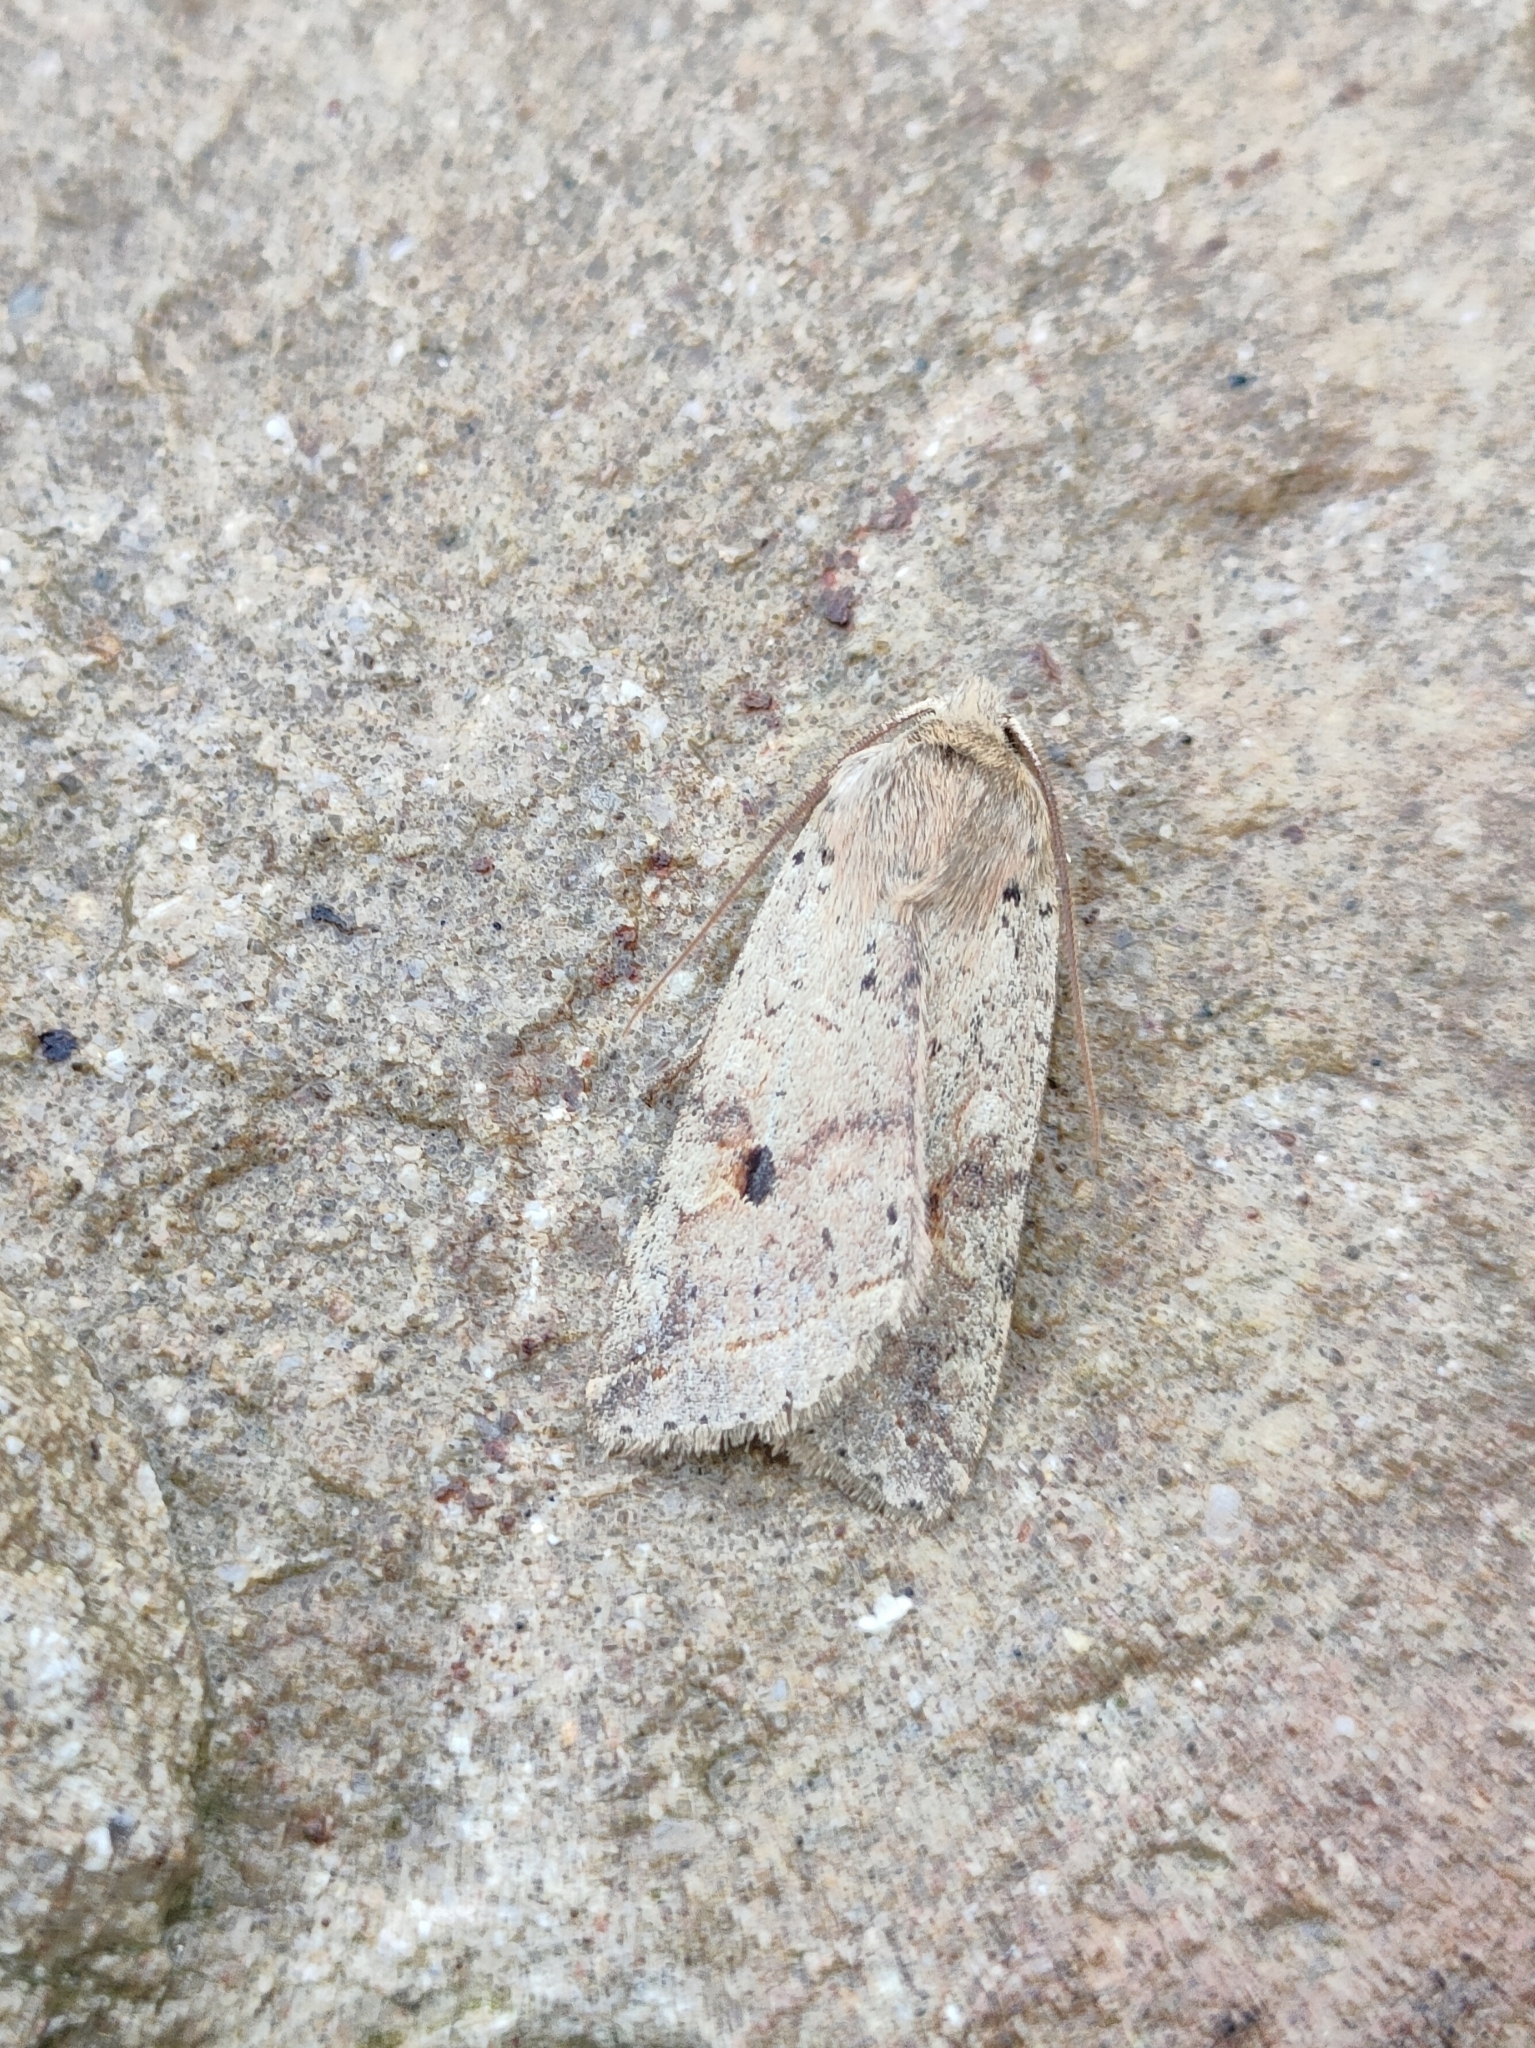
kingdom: Animalia
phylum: Arthropoda
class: Insecta
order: Lepidoptera
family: Noctuidae
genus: Agrochola
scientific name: Agrochola blidaensis
